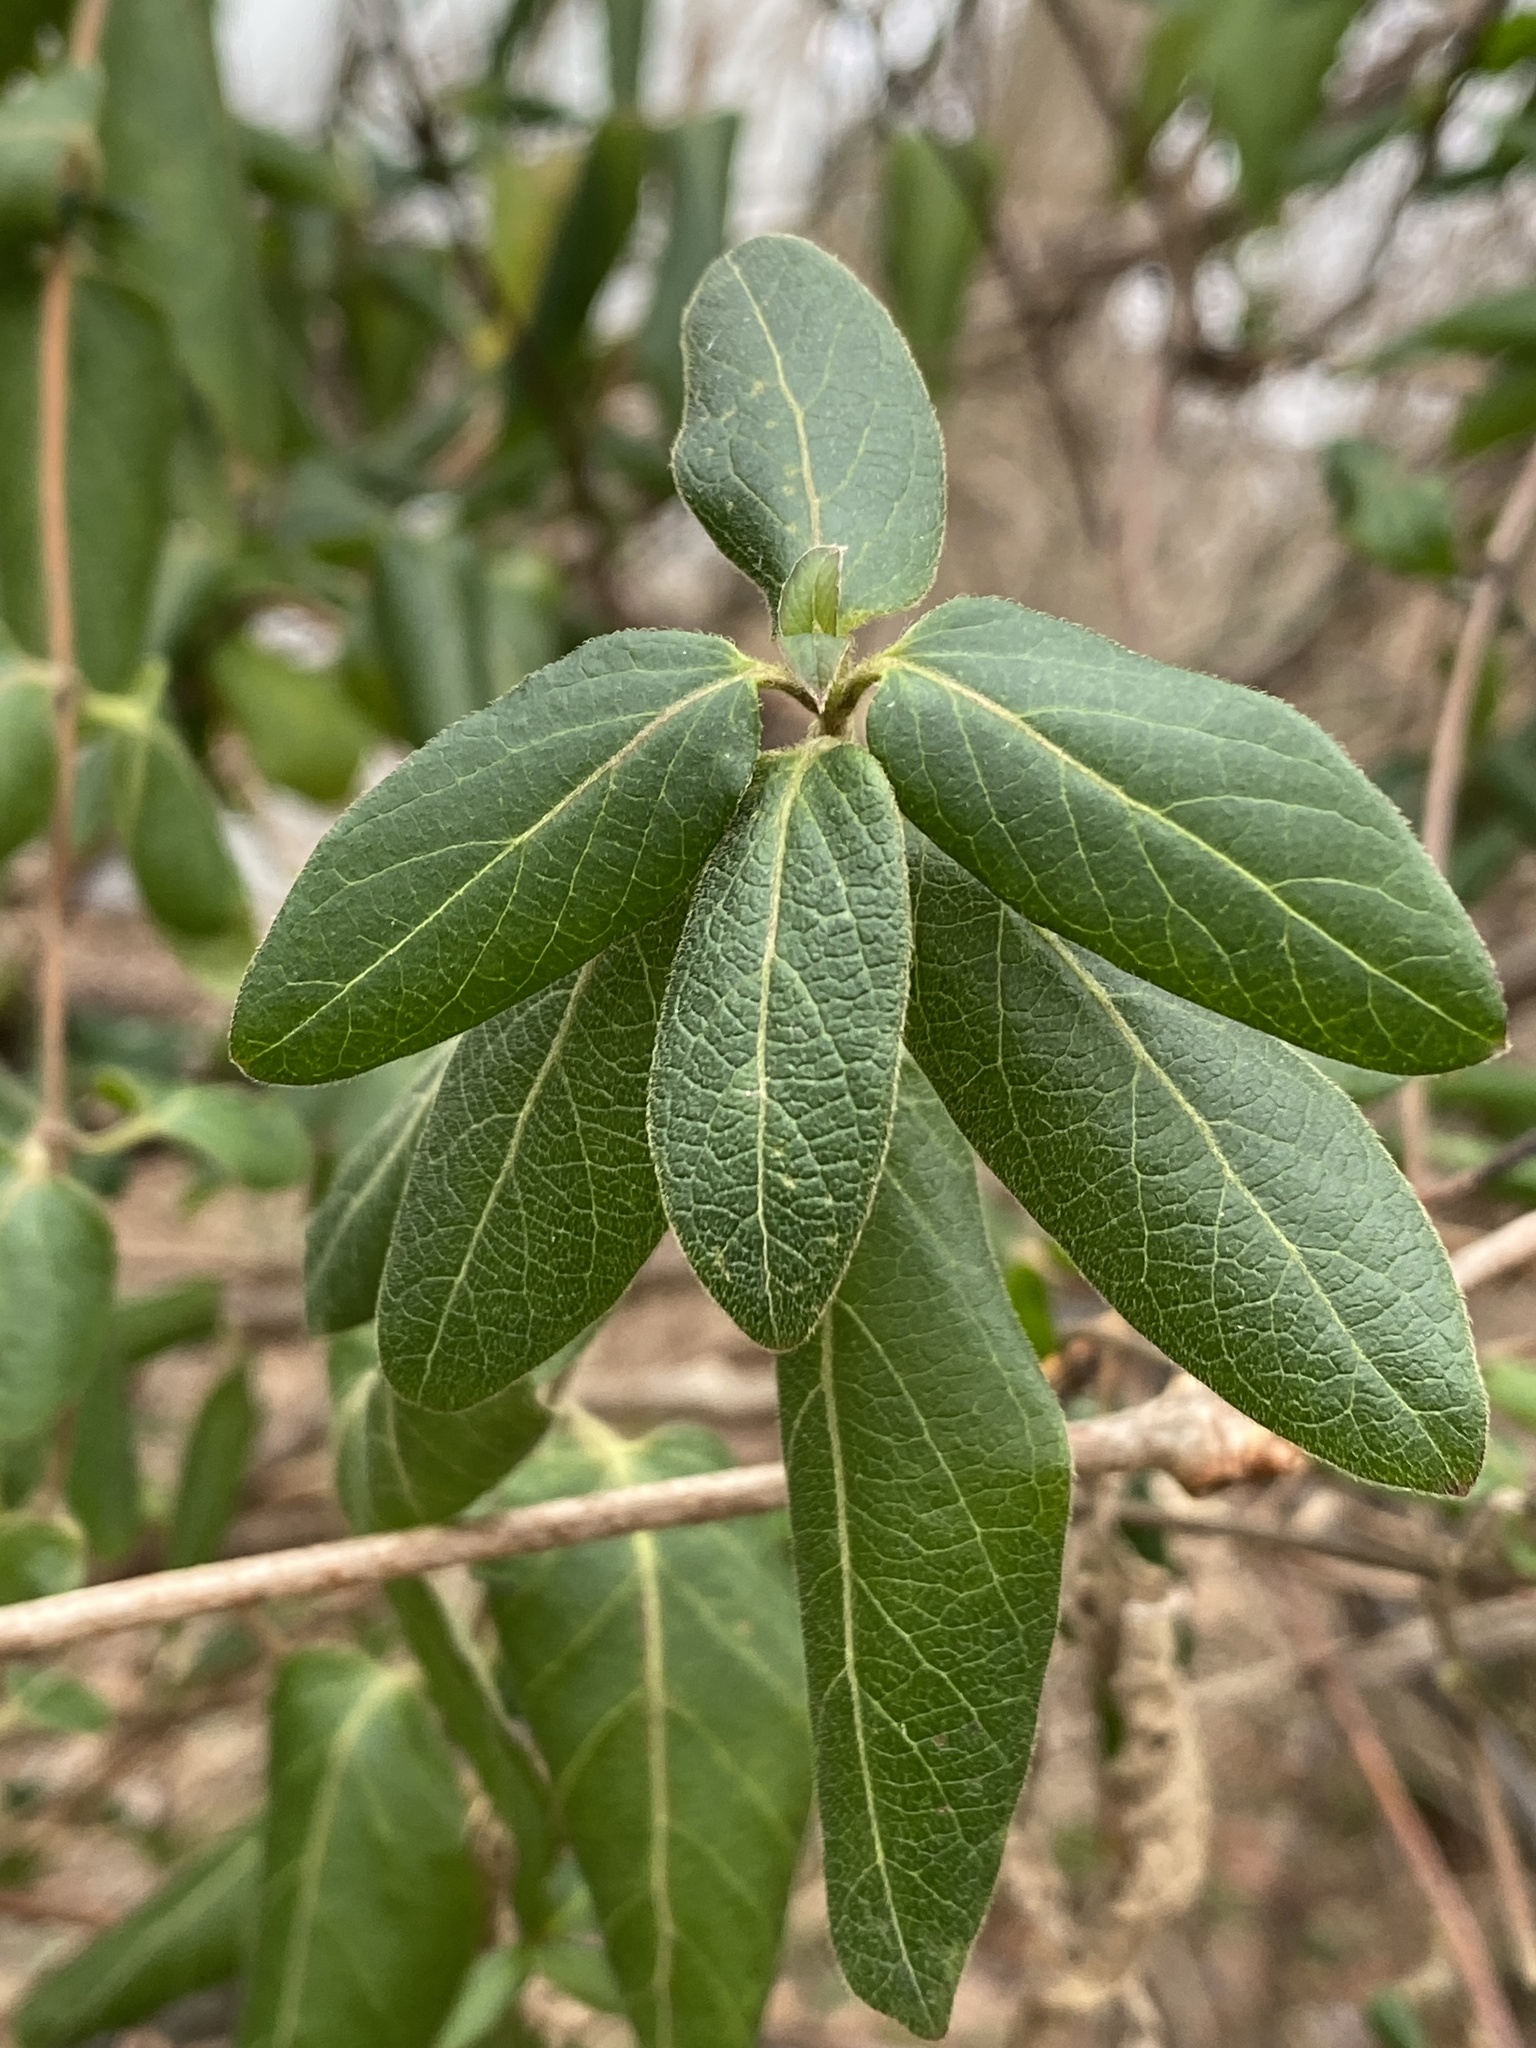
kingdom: Plantae
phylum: Tracheophyta
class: Magnoliopsida
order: Dipsacales
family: Caprifoliaceae
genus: Lonicera
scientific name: Lonicera japonica
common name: Japanese honeysuckle
